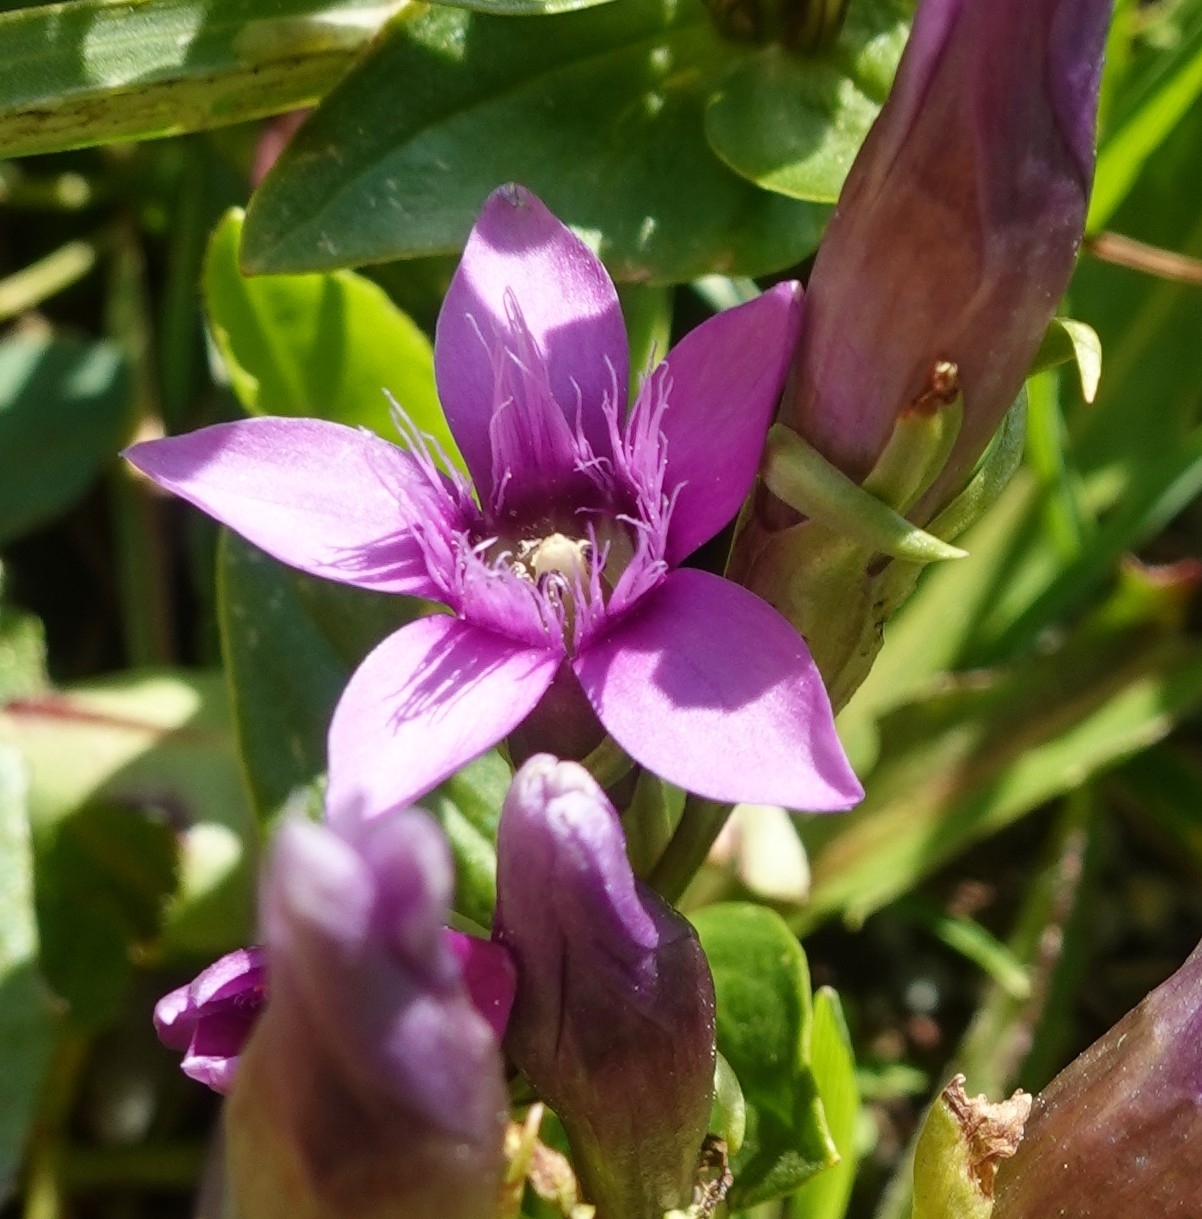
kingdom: Plantae
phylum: Tracheophyta
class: Magnoliopsida
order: Gentianales
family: Gentianaceae
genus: Gentianella
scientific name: Gentianella caucasea
